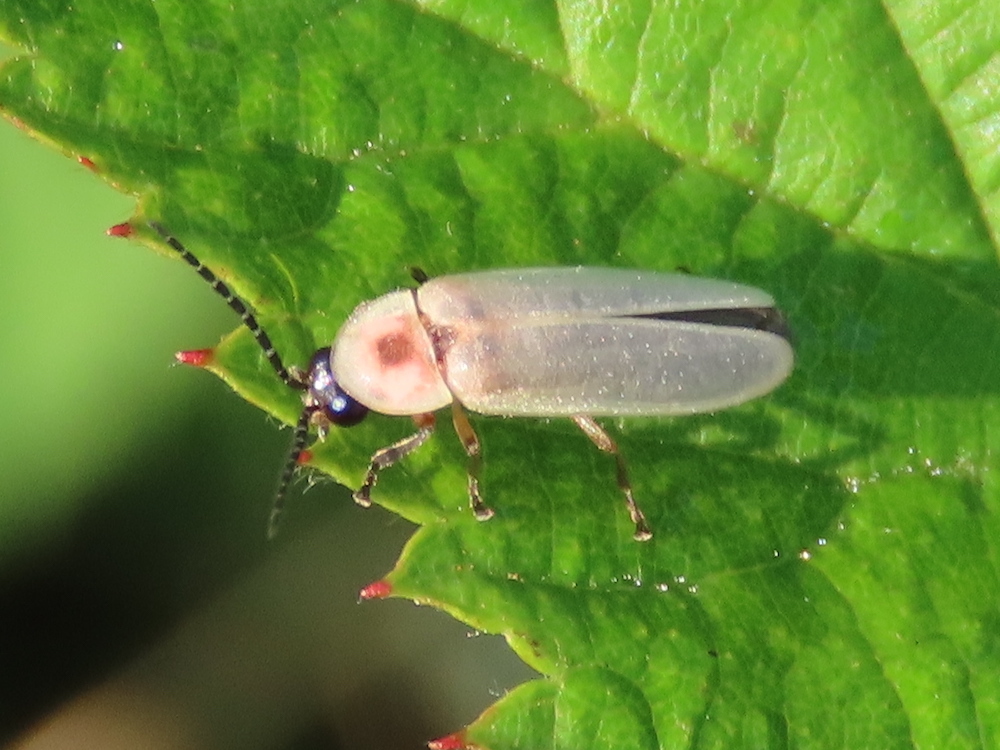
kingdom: Animalia
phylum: Arthropoda
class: Insecta
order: Coleoptera
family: Lampyridae
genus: Photinus
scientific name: Photinus marginellus
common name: Little gray firefly
